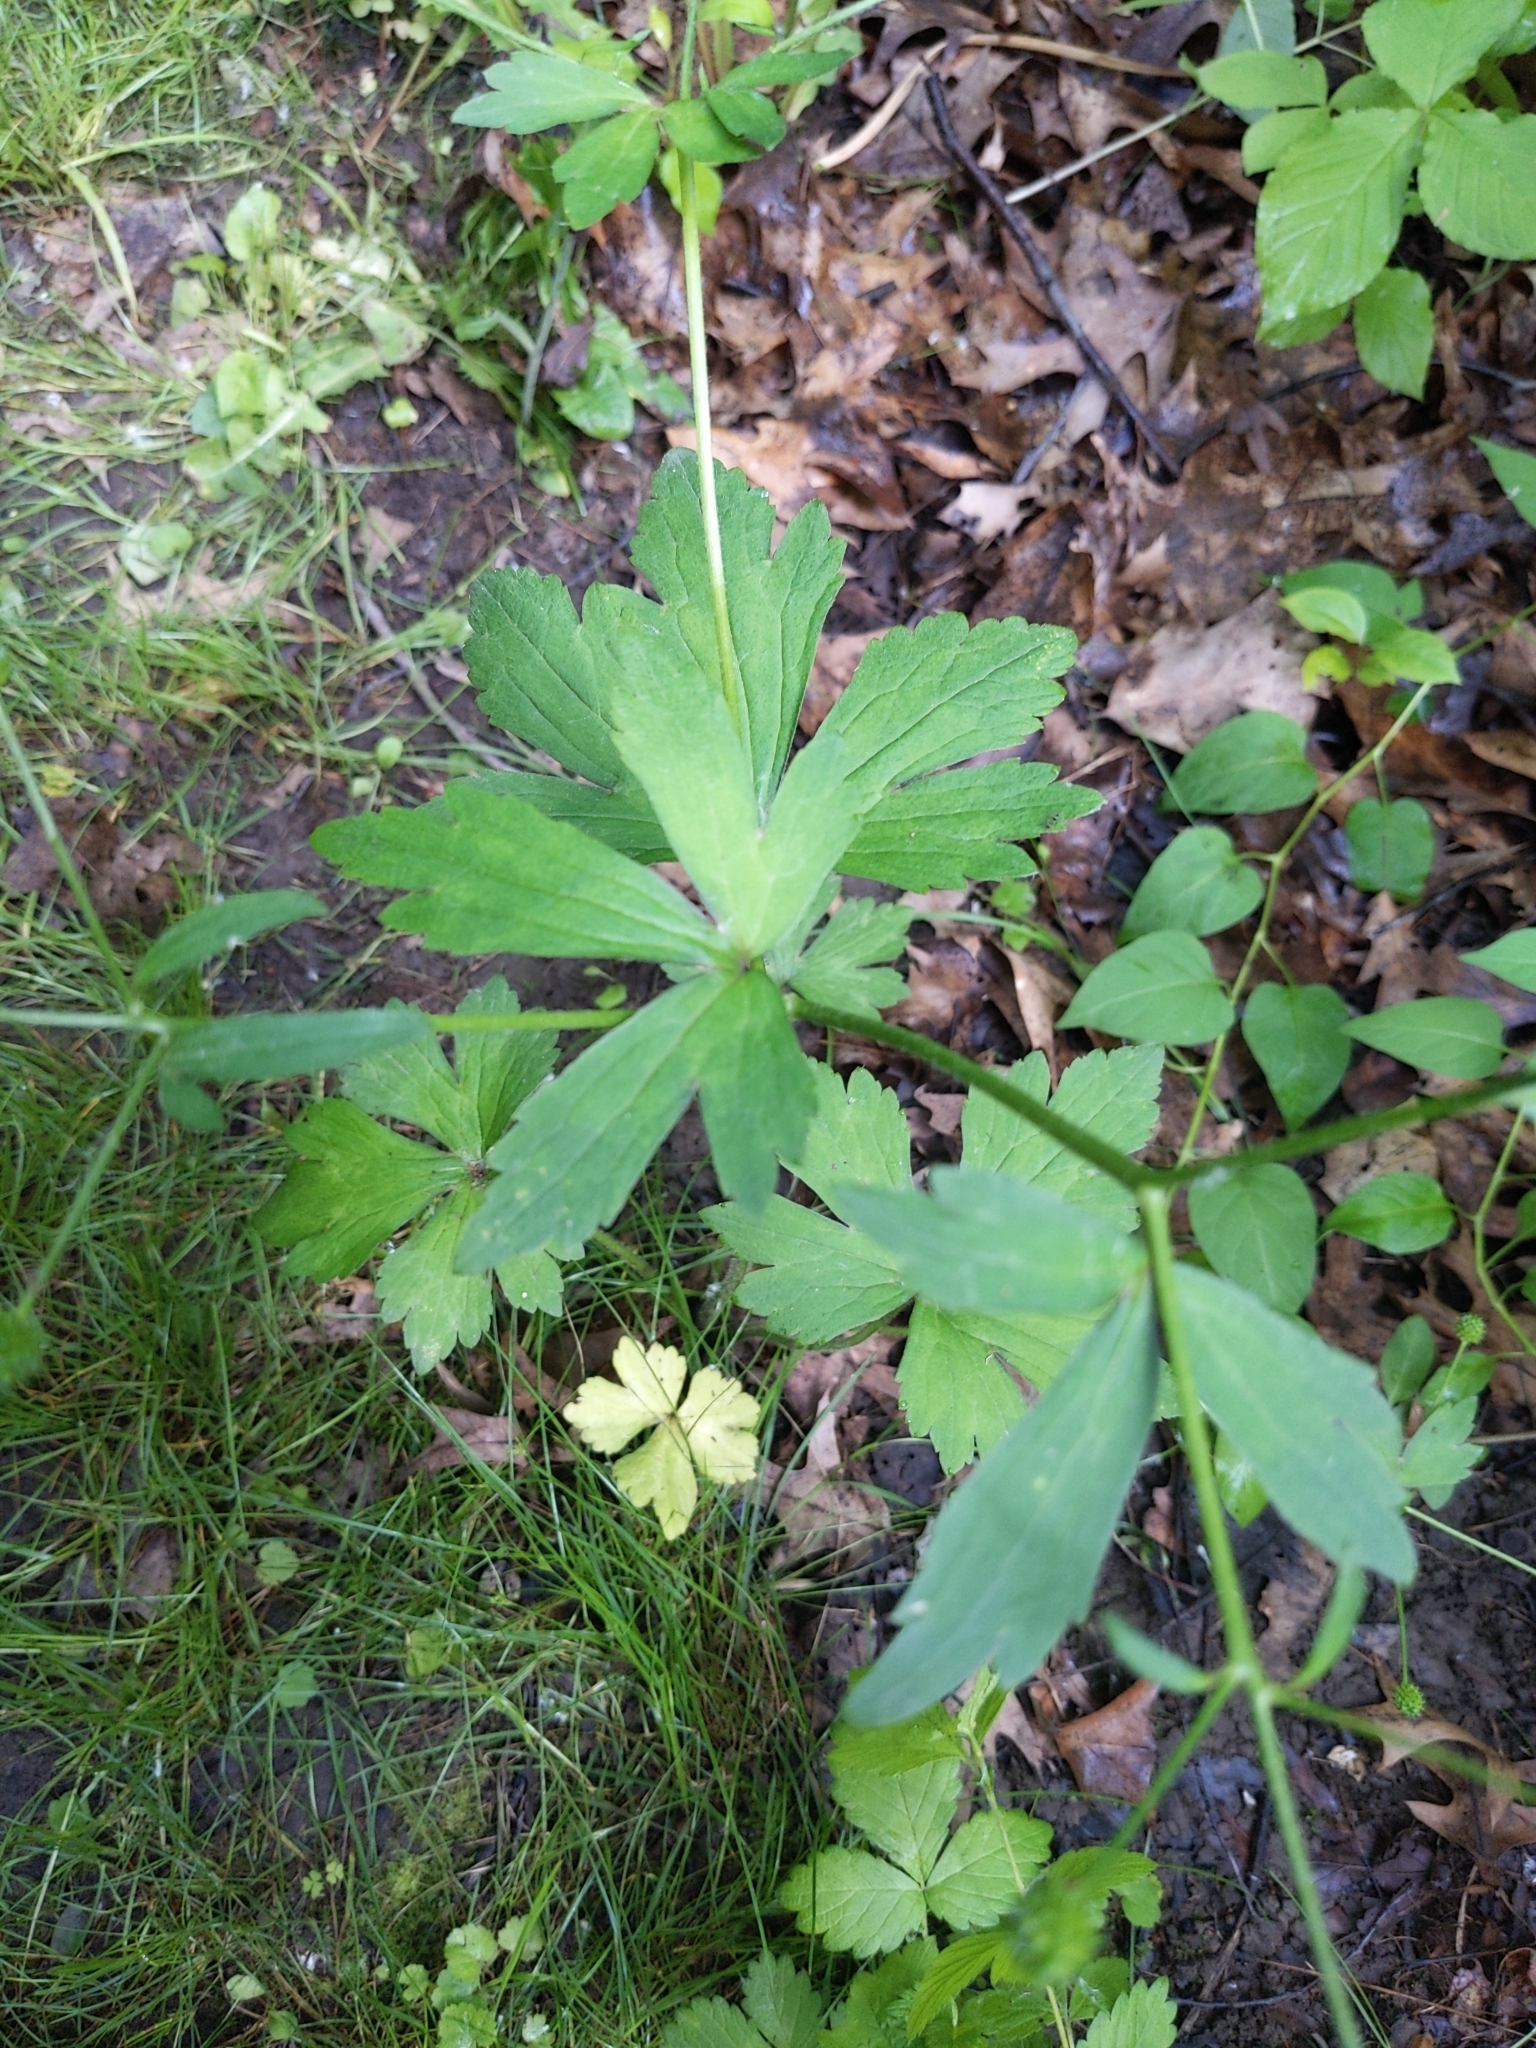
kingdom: Plantae
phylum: Tracheophyta
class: Magnoliopsida
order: Ranunculales
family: Ranunculaceae
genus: Ranunculus
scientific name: Ranunculus recurvatus
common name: Blisterwort
